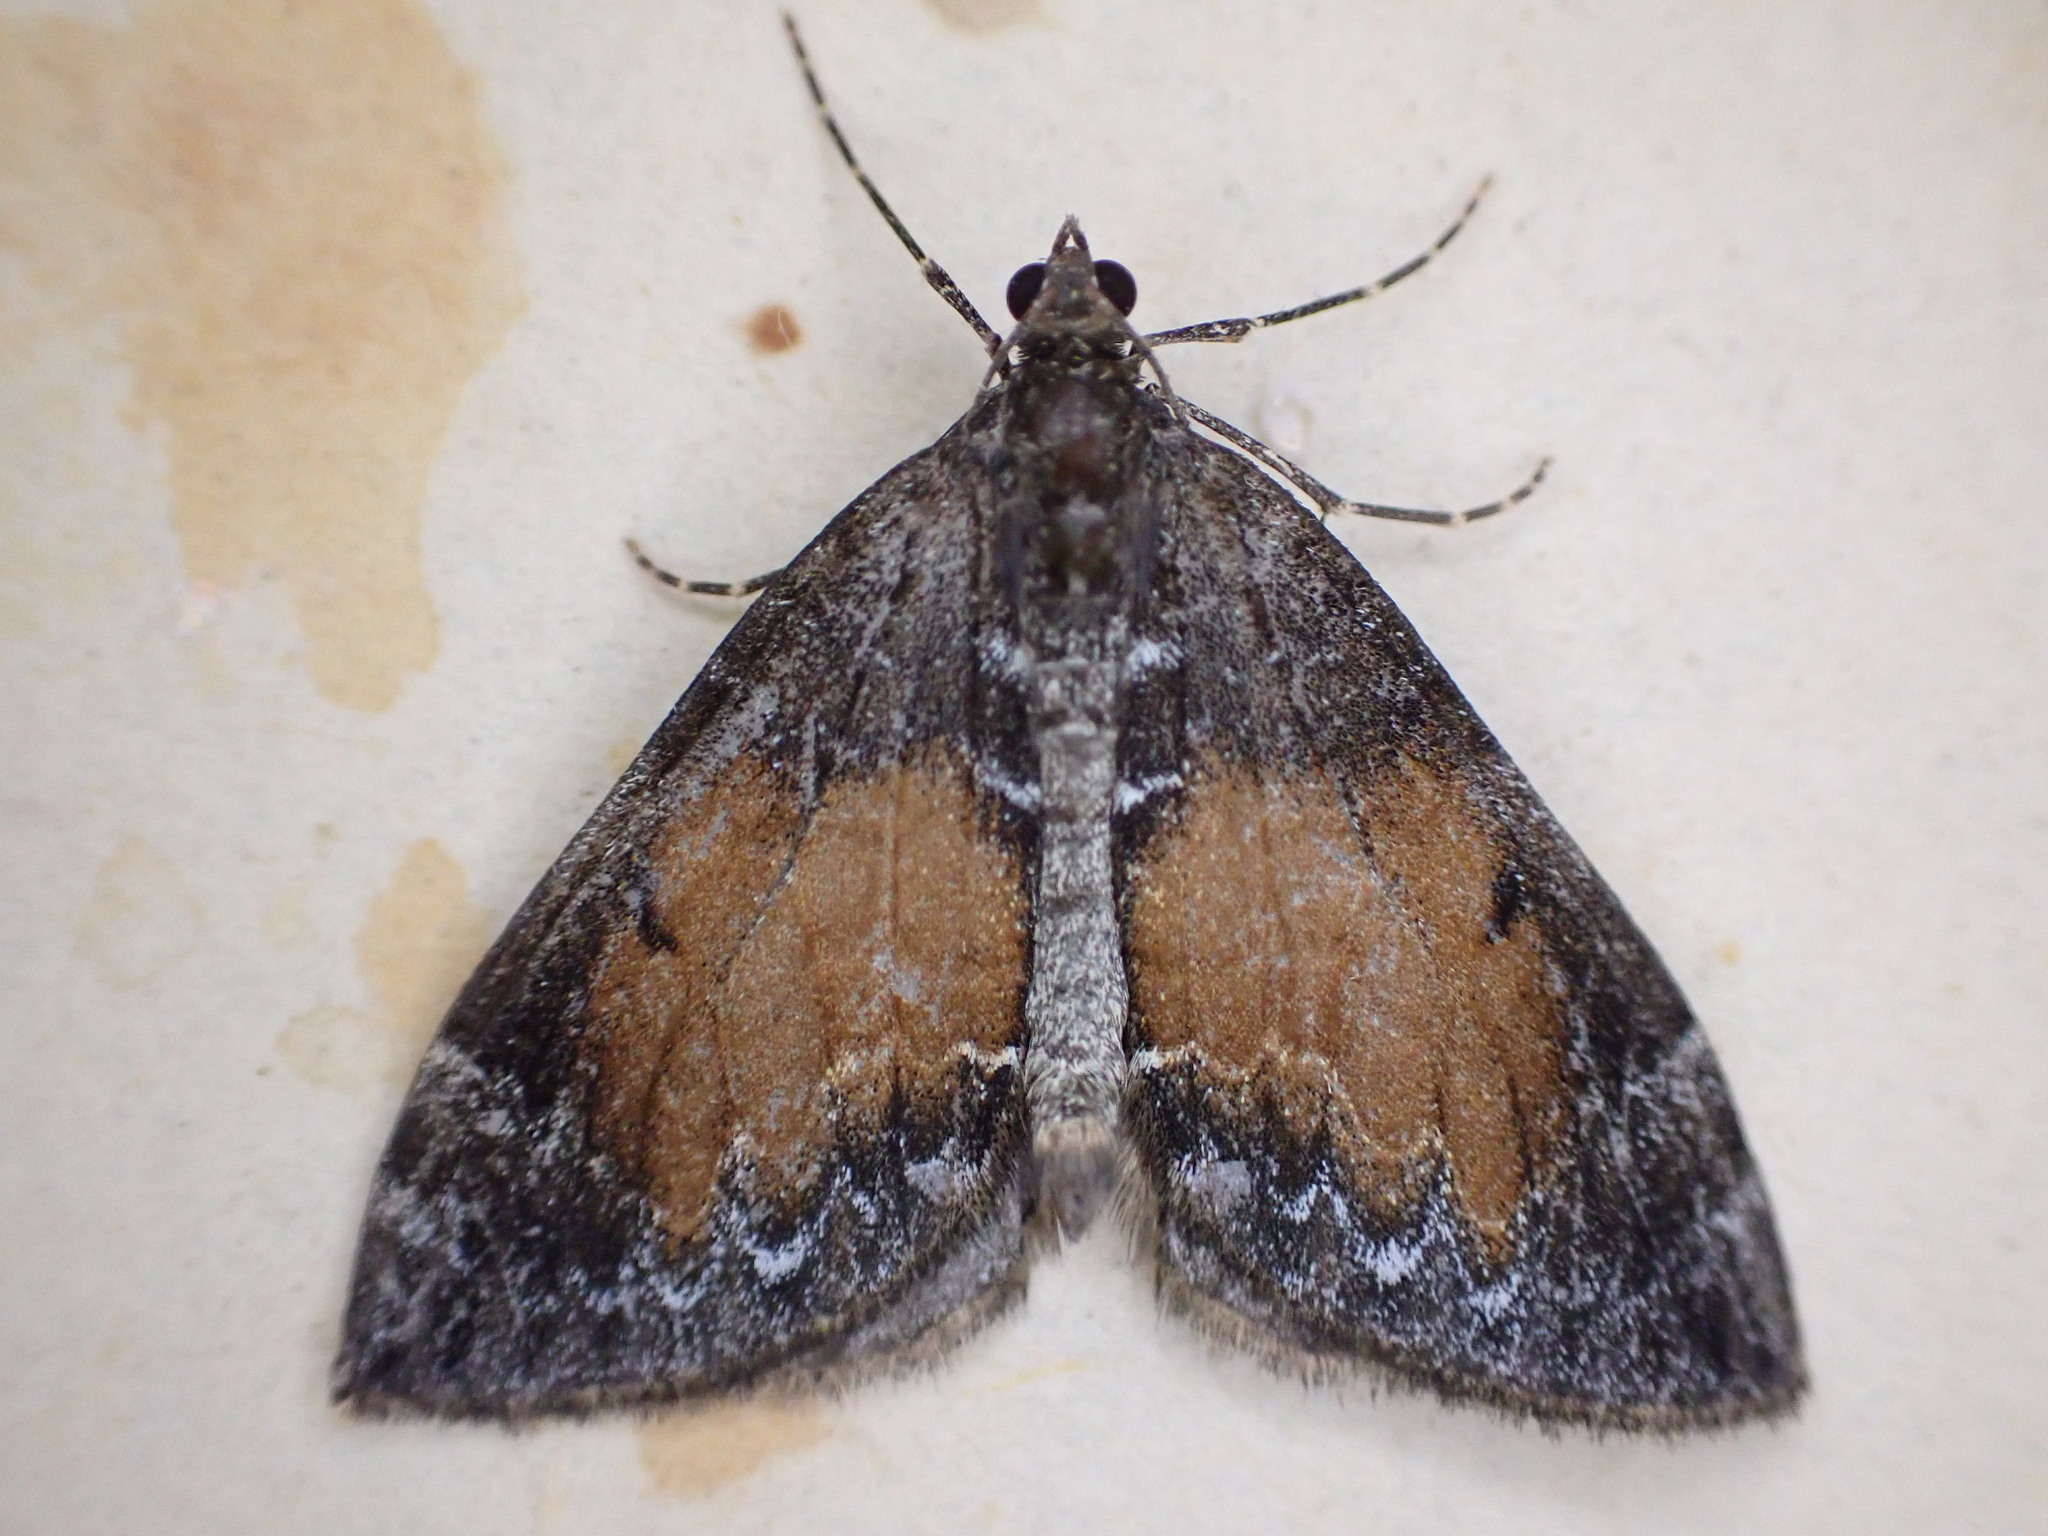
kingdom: Animalia
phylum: Arthropoda
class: Insecta
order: Lepidoptera
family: Geometridae
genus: Dysstroma
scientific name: Dysstroma truncata
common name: Common marbled carpet
